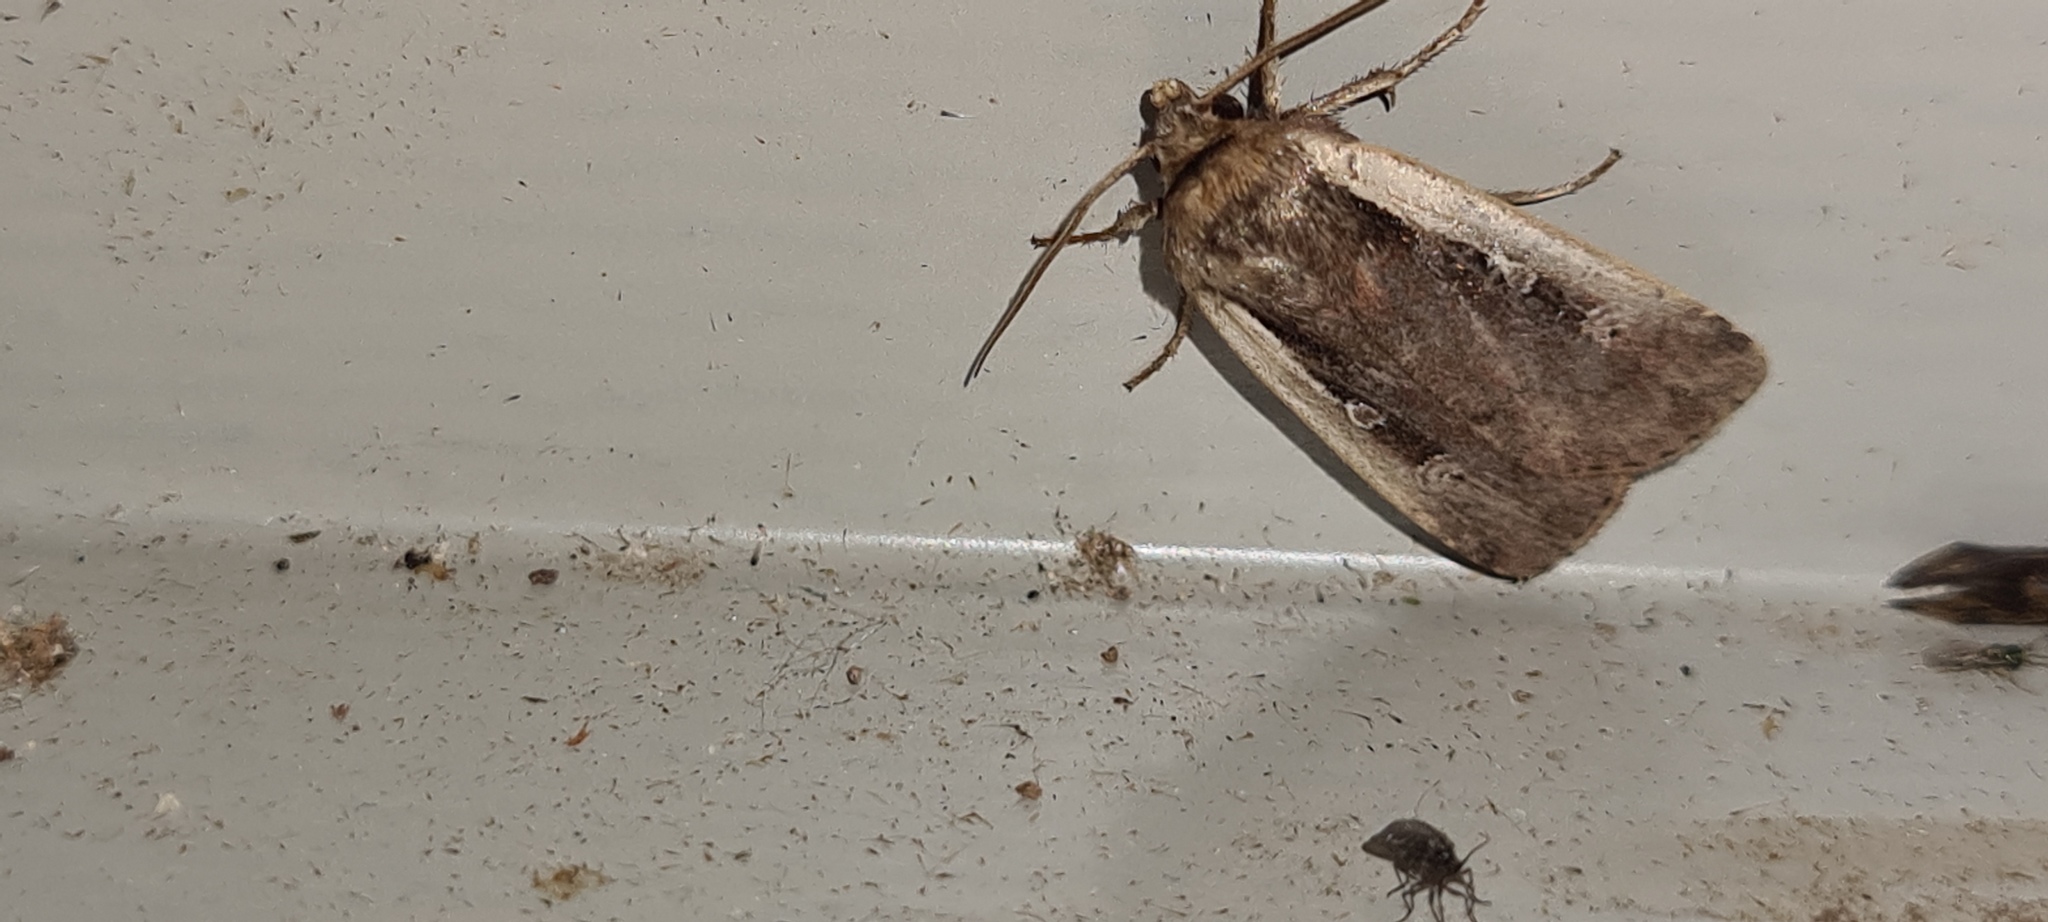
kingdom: Animalia
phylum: Arthropoda
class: Insecta
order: Lepidoptera
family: Noctuidae
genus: Ochropleura
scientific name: Ochropleura plecta
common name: Flame shoulder
